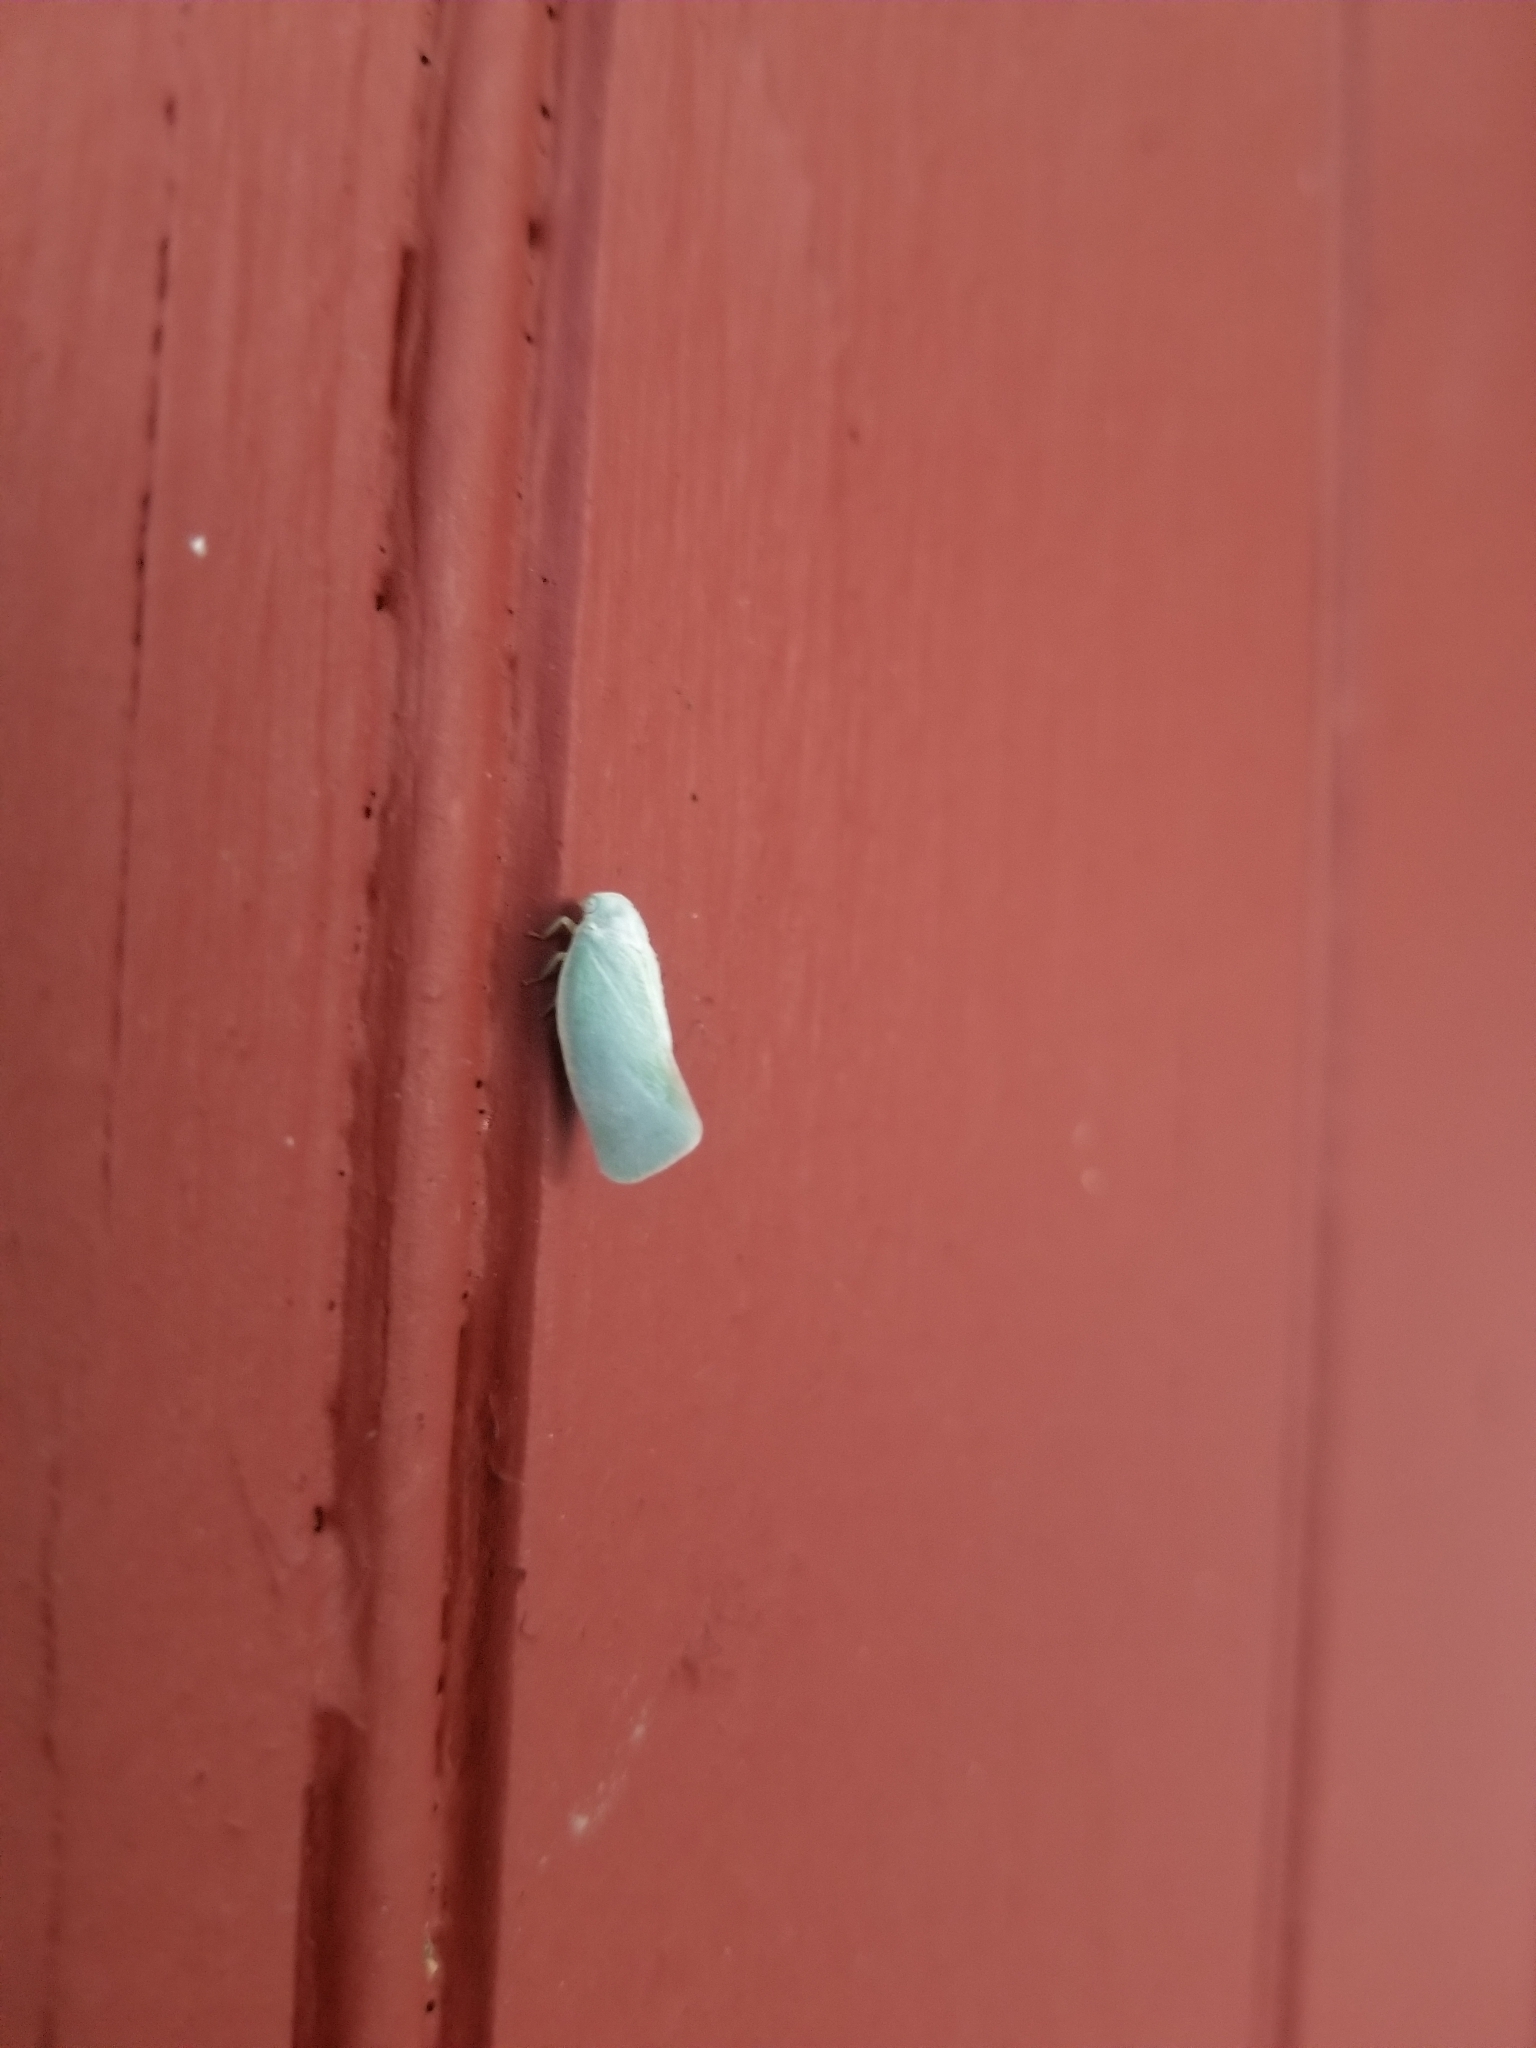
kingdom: Animalia
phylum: Arthropoda
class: Insecta
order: Hemiptera
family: Flatidae
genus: Flatormenis
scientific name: Flatormenis proxima
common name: Northern flatid planthopper
